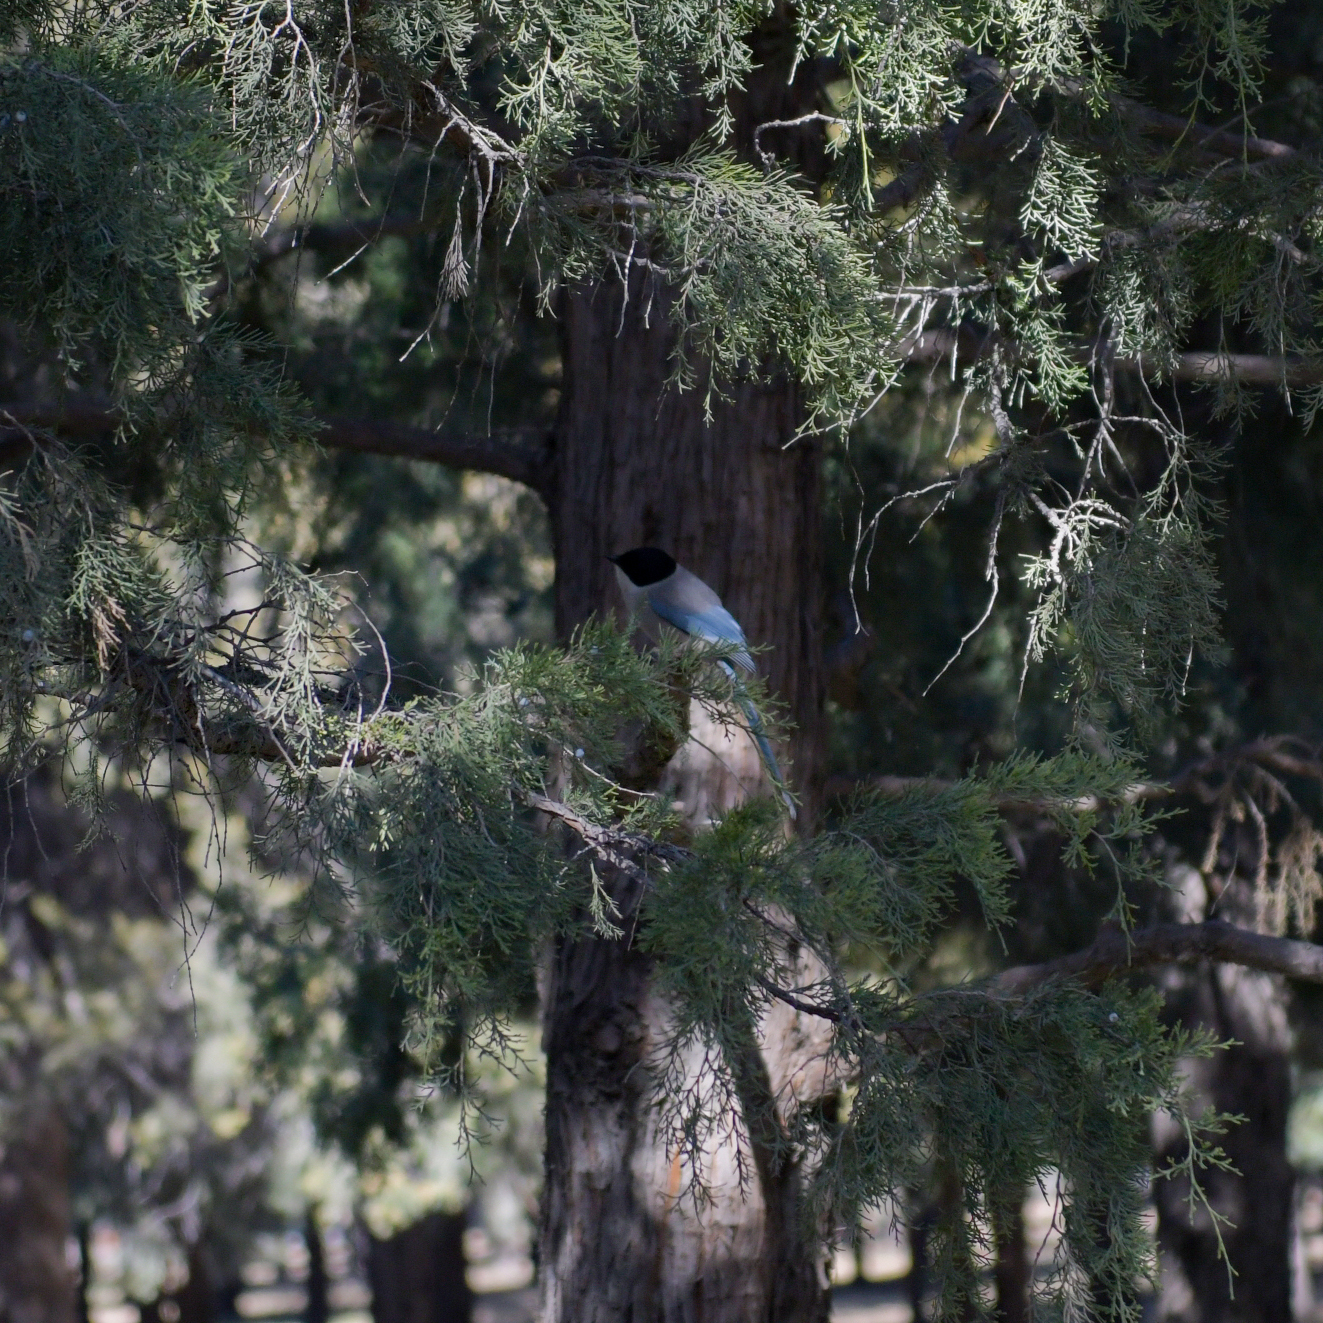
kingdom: Animalia
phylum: Chordata
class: Aves
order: Passeriformes
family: Corvidae
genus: Cyanopica
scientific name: Cyanopica cyanus
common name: Azure-winged magpie
